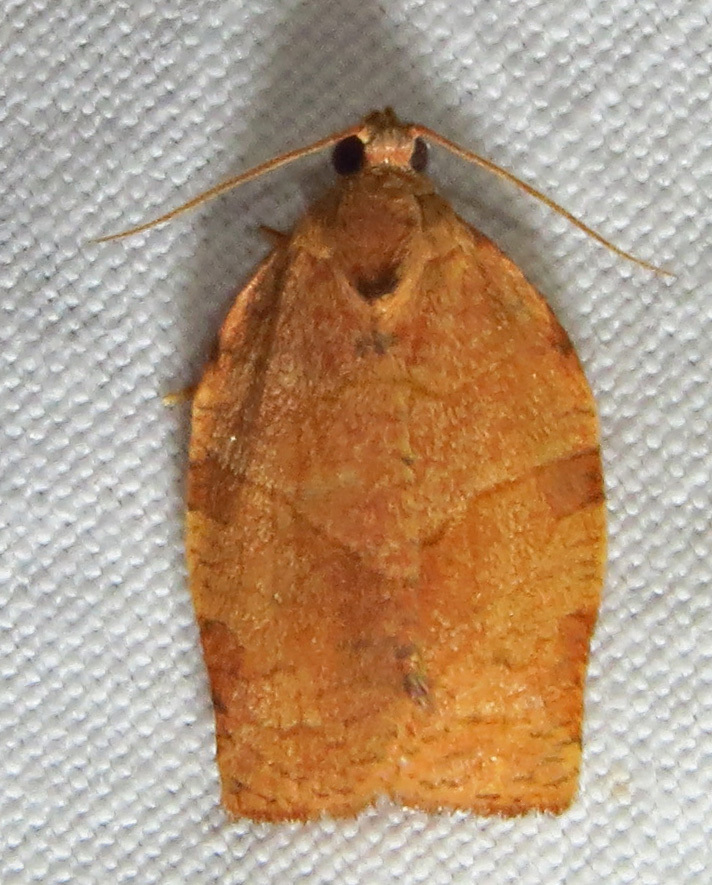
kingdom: Animalia
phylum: Arthropoda
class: Insecta
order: Lepidoptera
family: Tortricidae
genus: Choristoneura
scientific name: Choristoneura rosaceana
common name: Oblique-banded leafroller moth
